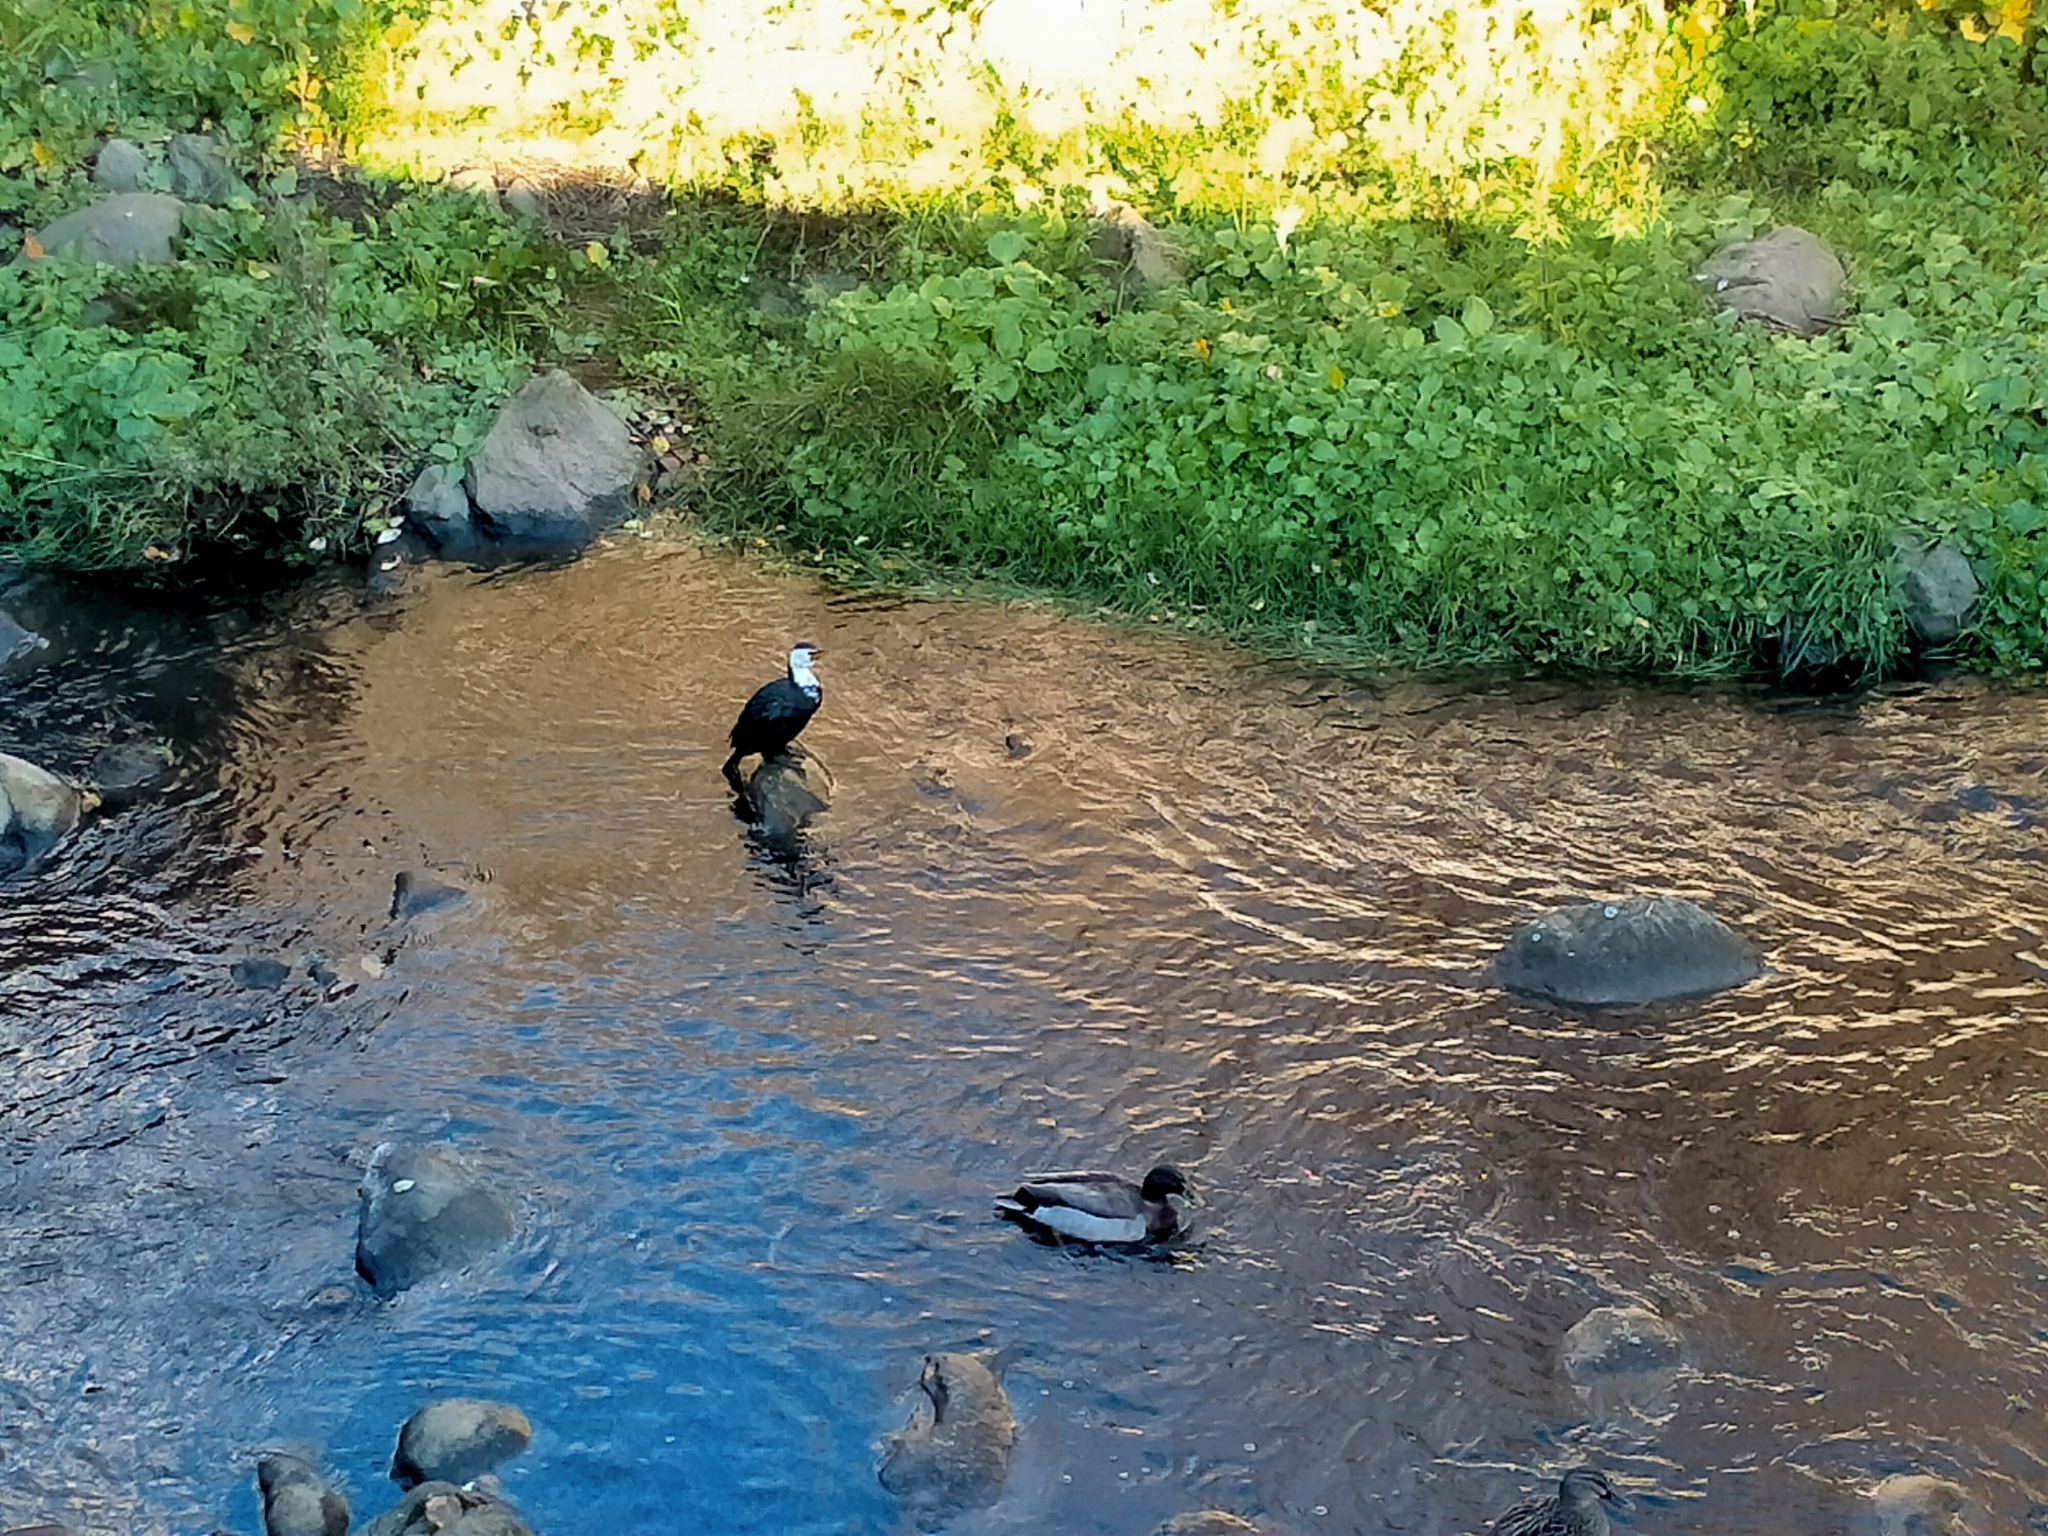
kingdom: Animalia
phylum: Chordata
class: Aves
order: Suliformes
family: Phalacrocoracidae
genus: Microcarbo
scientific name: Microcarbo melanoleucos
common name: Little pied cormorant
